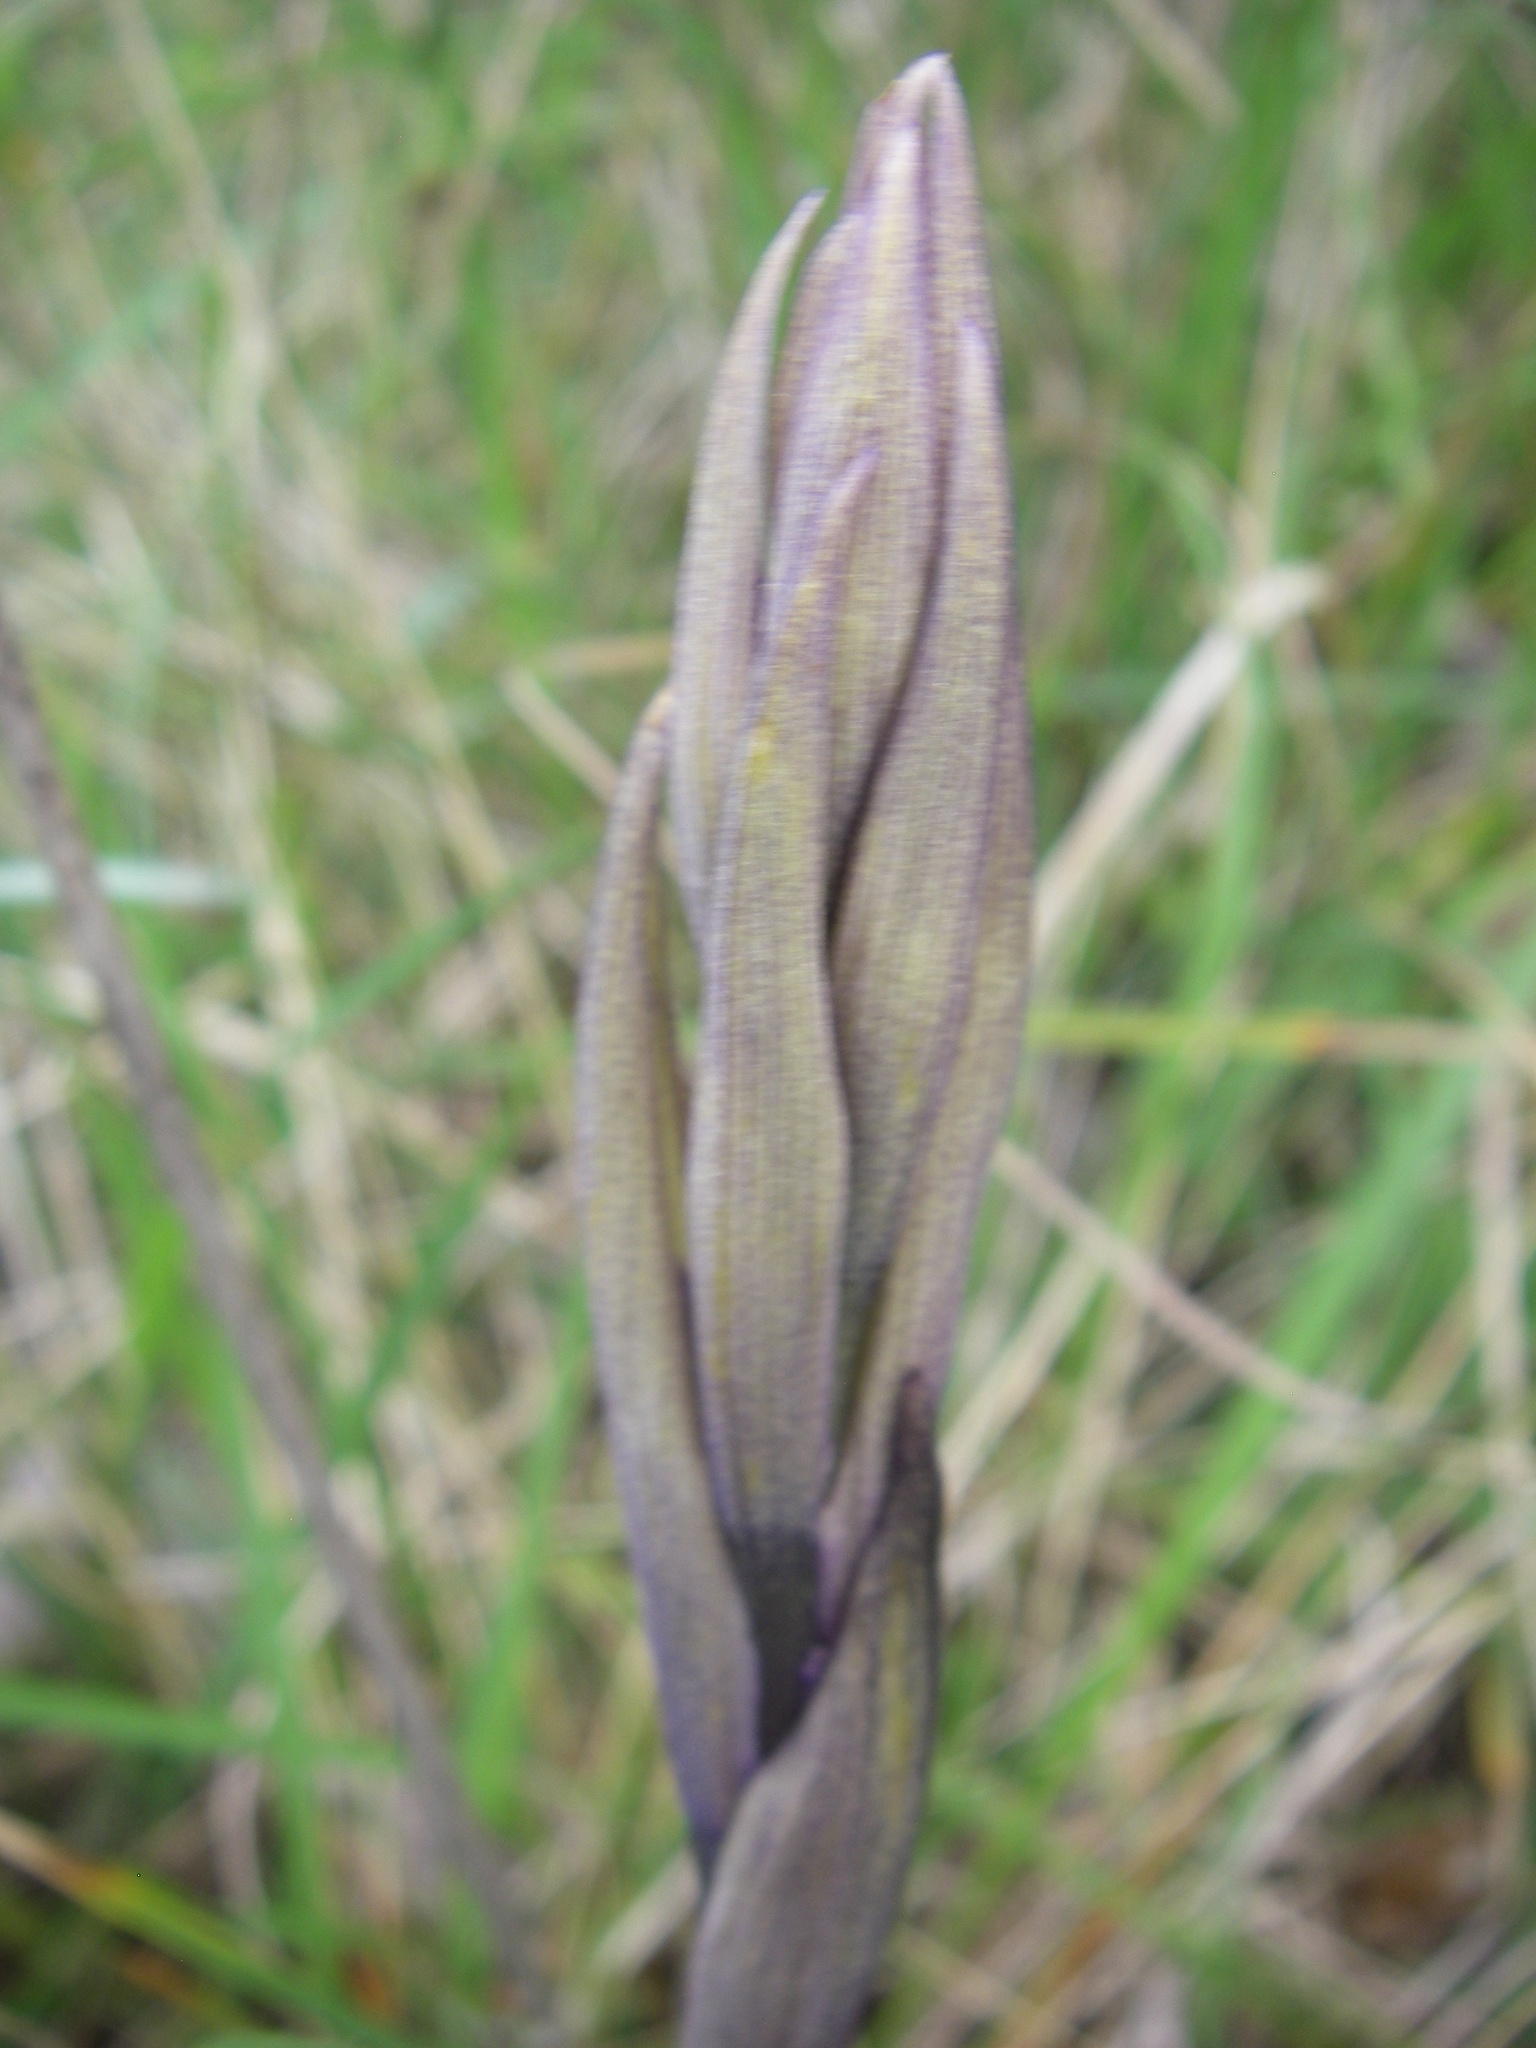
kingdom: Plantae
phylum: Tracheophyta
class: Liliopsida
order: Asparagales
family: Orchidaceae
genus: Limodorum
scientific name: Limodorum abortivum
